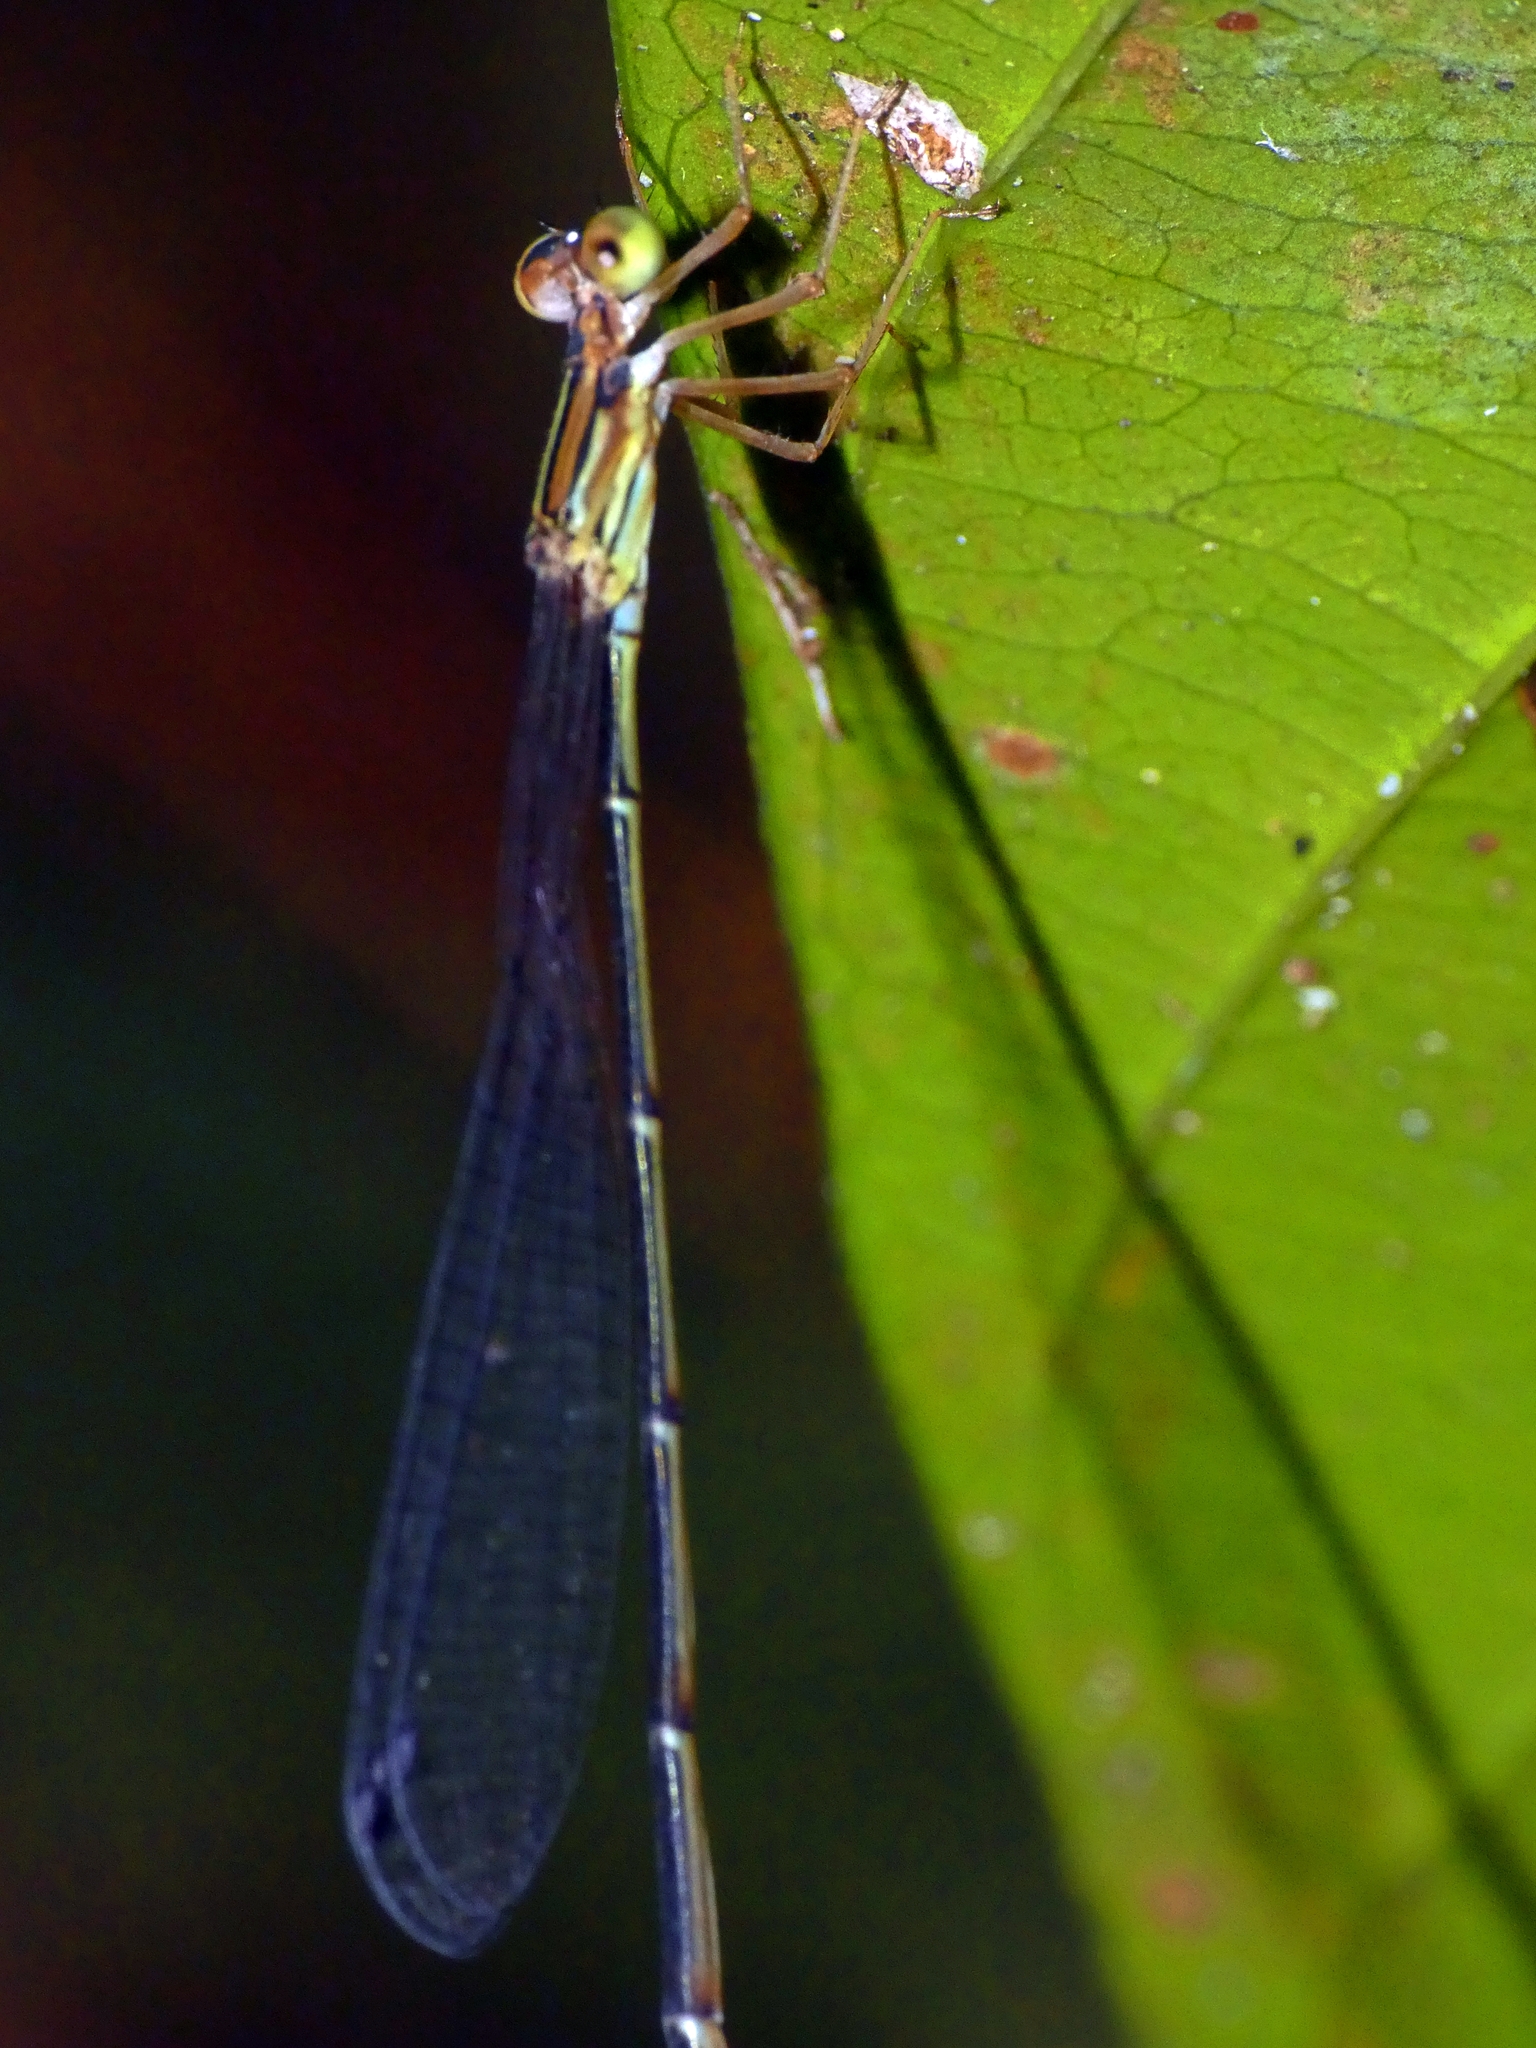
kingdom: Animalia
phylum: Arthropoda
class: Insecta
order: Odonata
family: Isostictidae
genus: Oristicta
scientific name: Oristicta filicicola
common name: Slender wiretail
